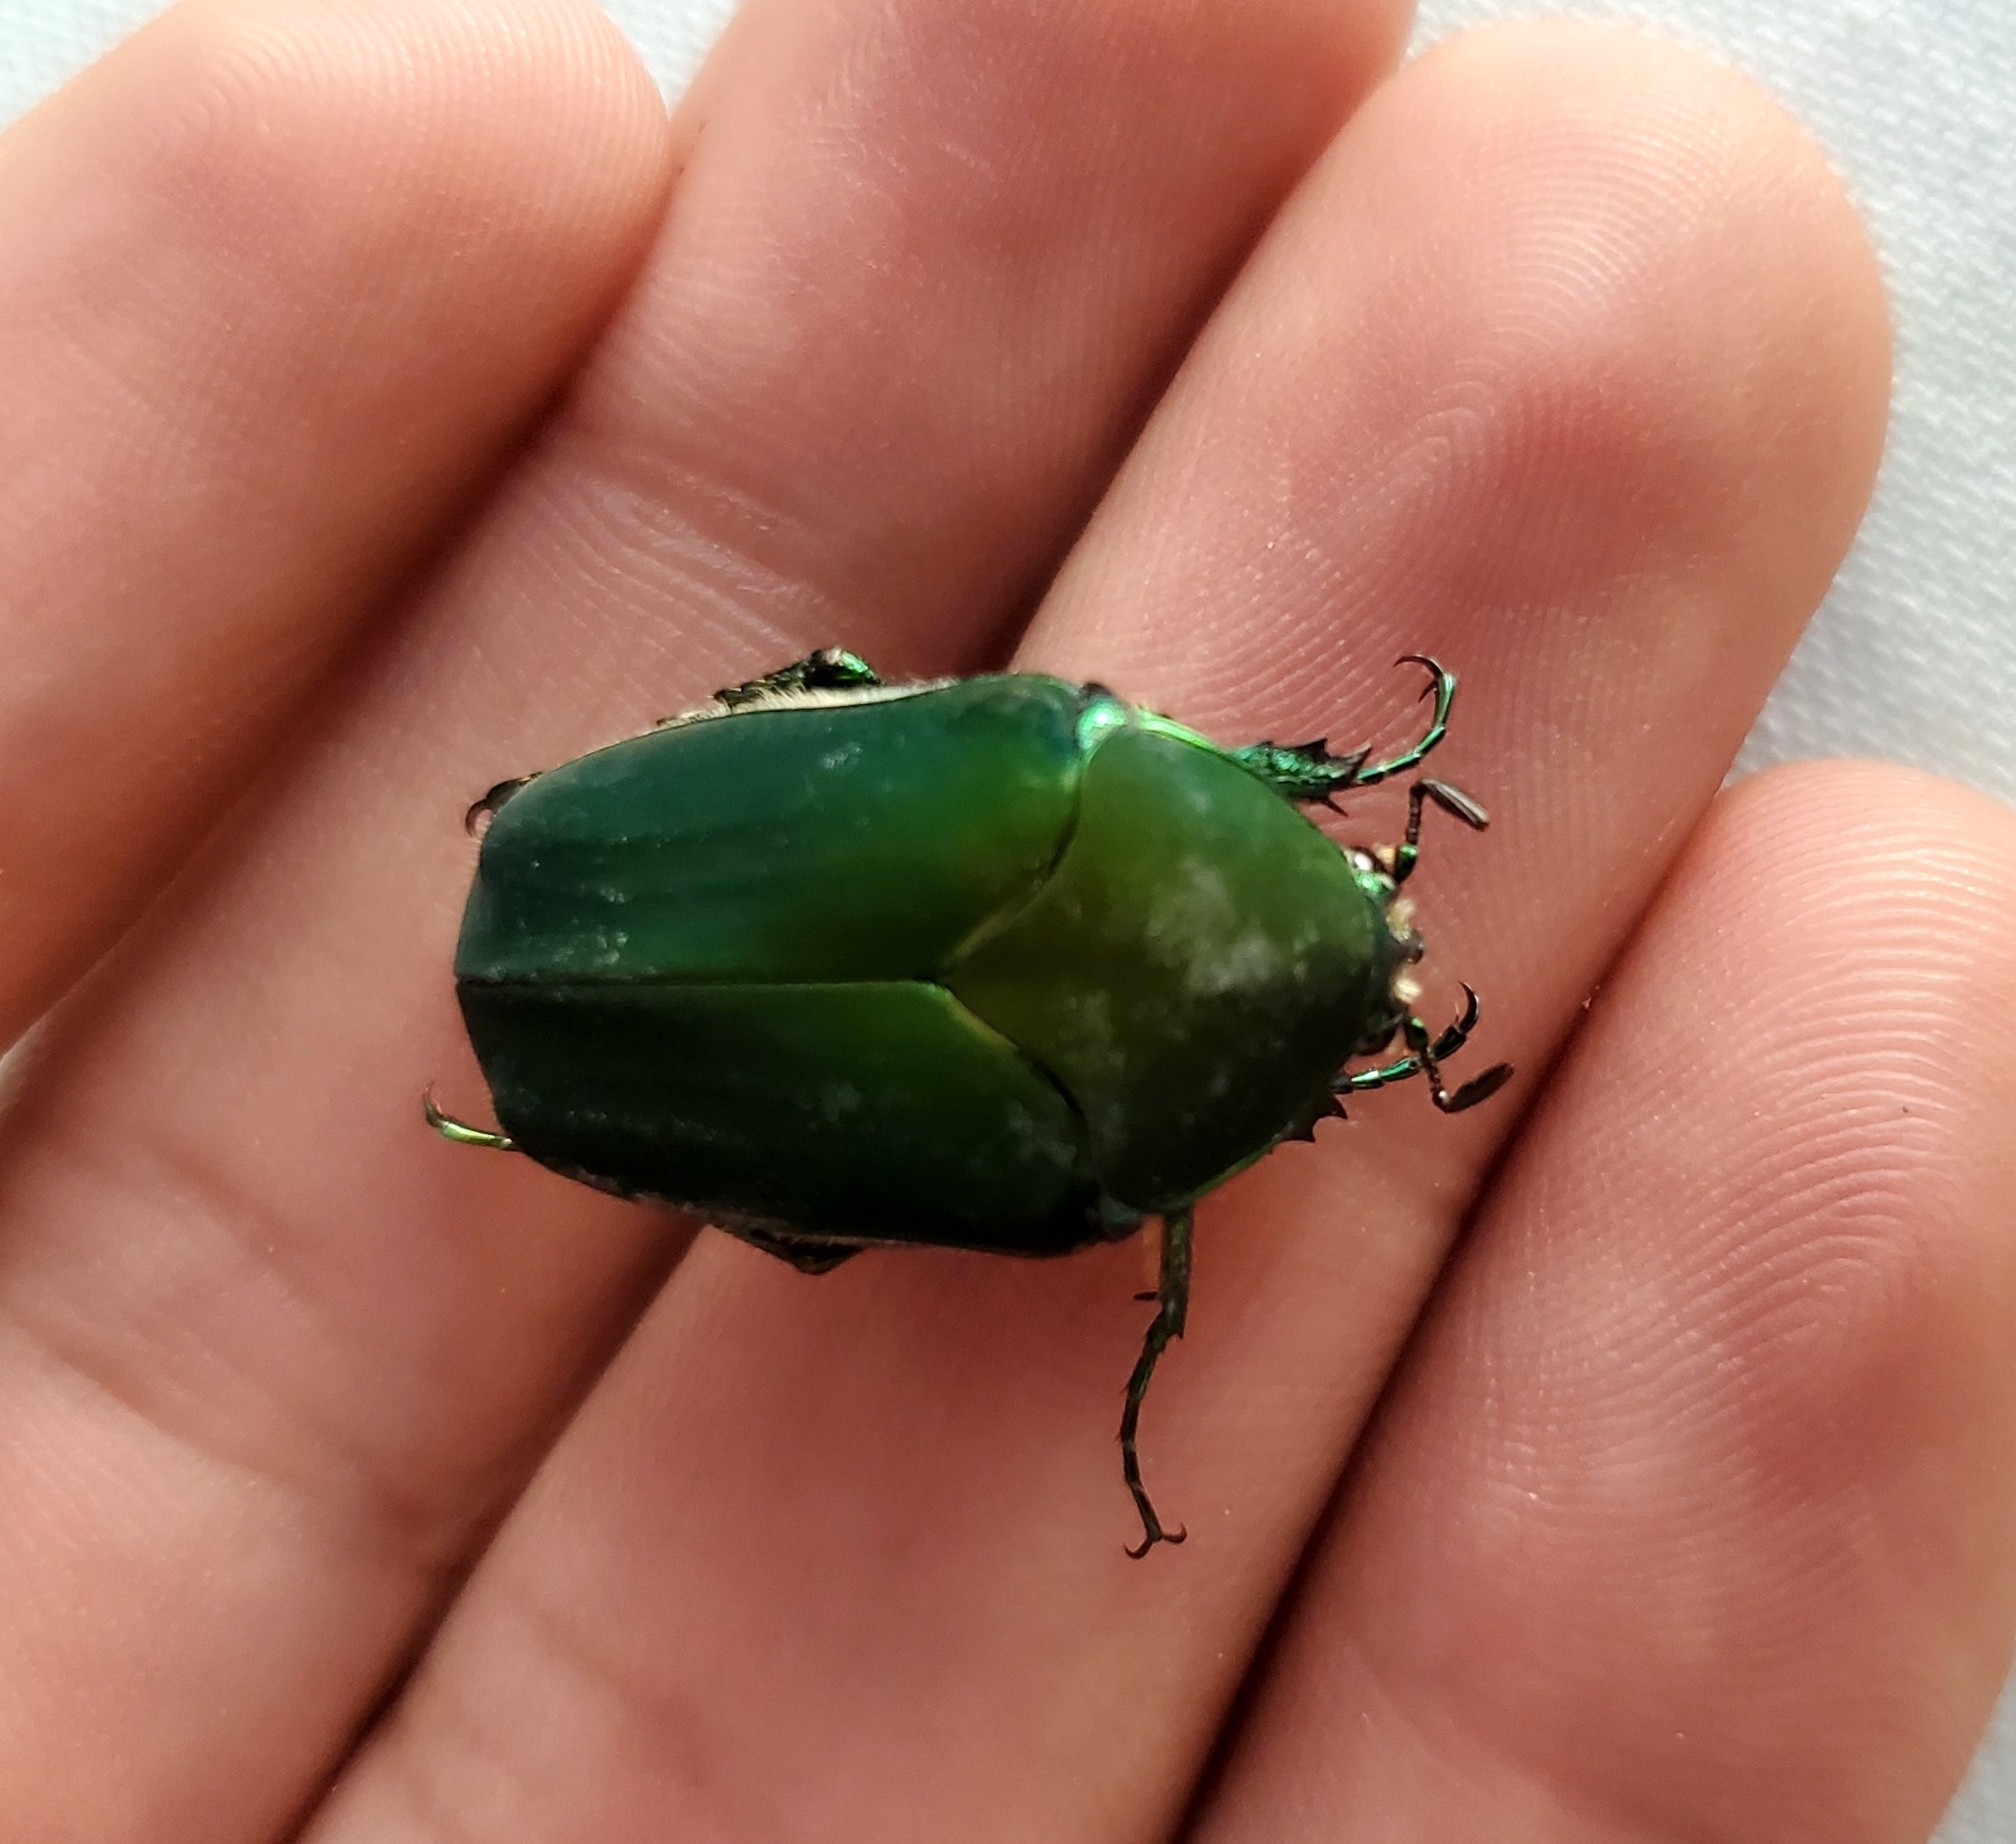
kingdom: Animalia
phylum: Arthropoda
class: Insecta
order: Coleoptera
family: Scarabaeidae
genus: Cotinis
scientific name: Cotinis mutabilis
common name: Figeater beetle
